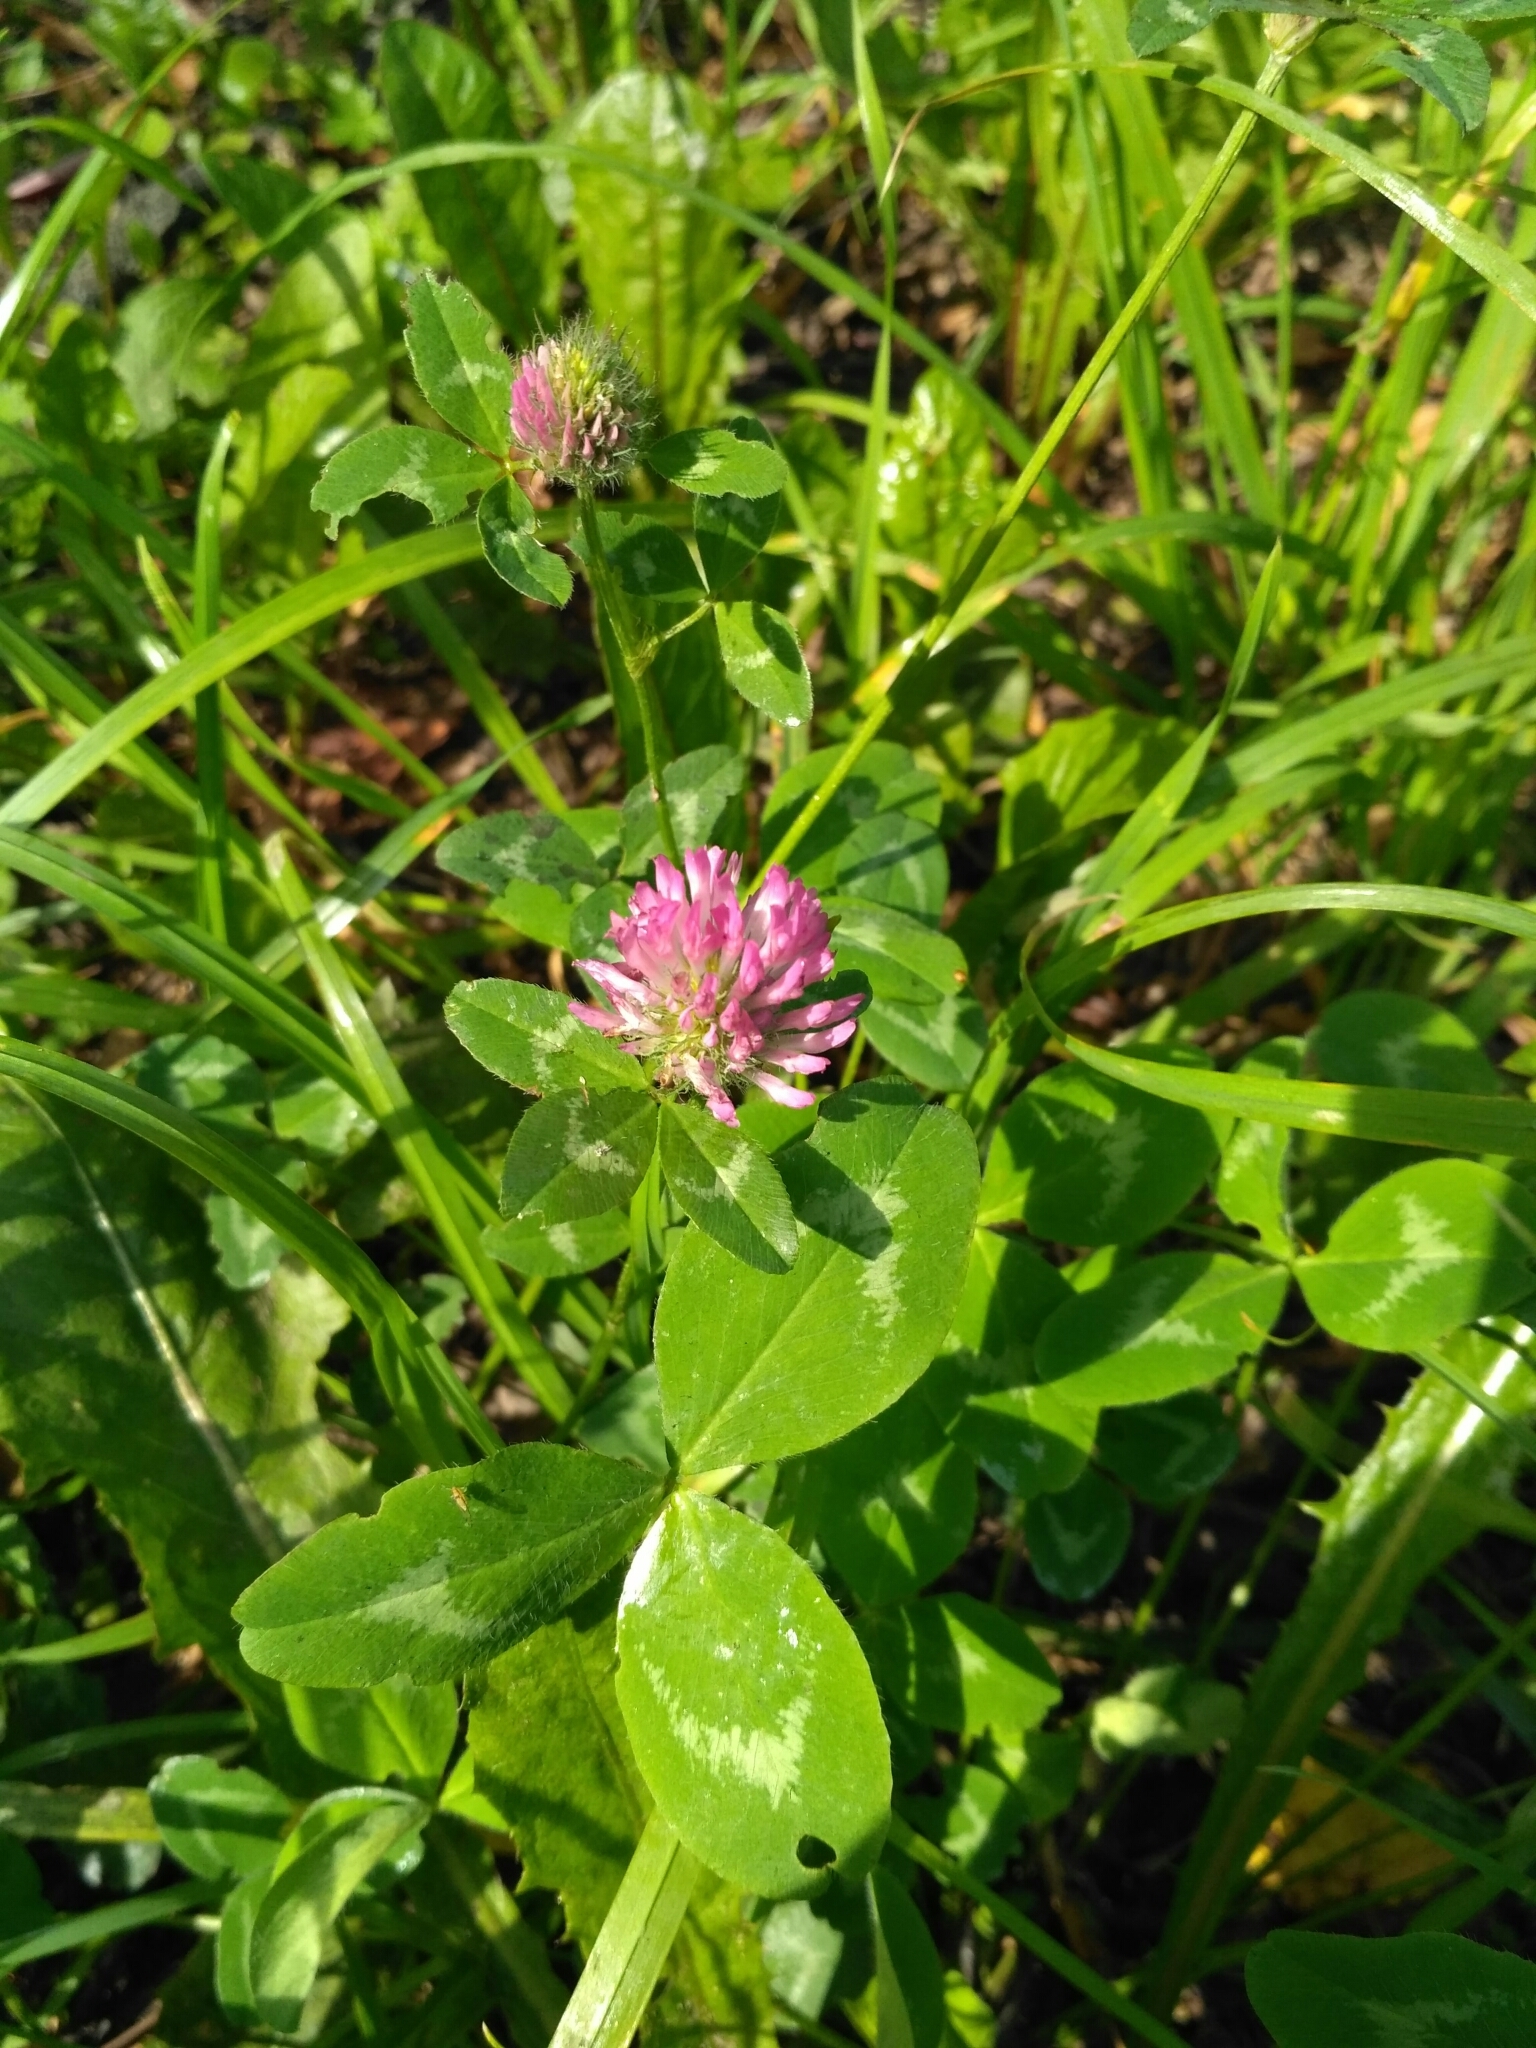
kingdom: Plantae
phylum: Tracheophyta
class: Magnoliopsida
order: Fabales
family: Fabaceae
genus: Trifolium
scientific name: Trifolium pratense
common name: Red clover
